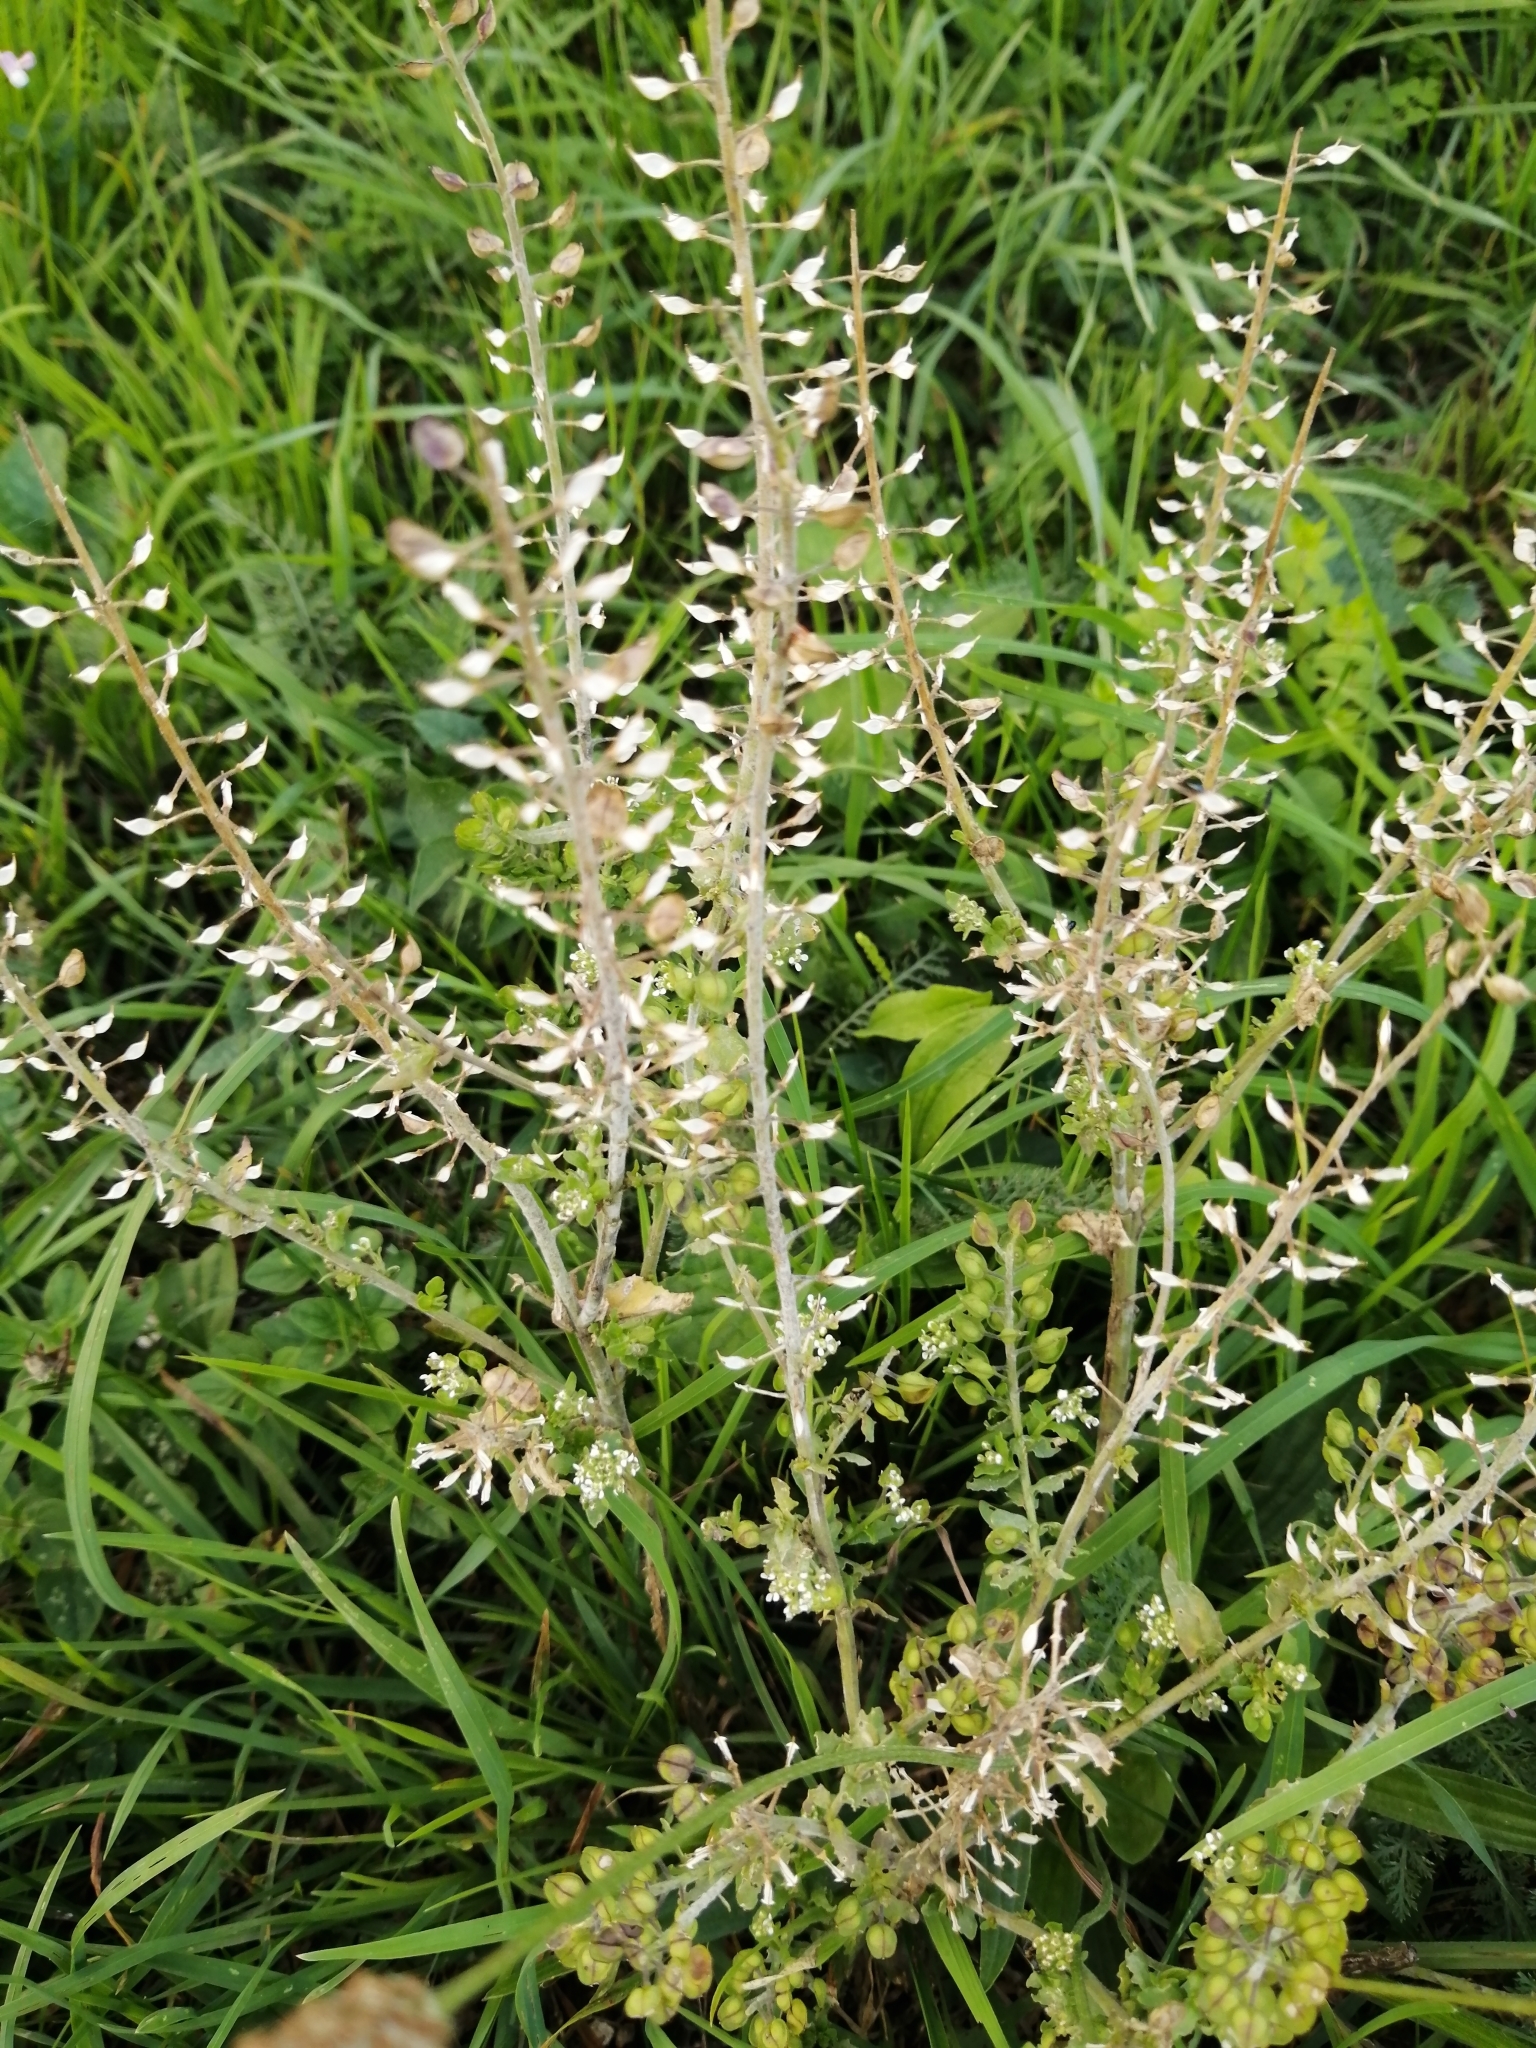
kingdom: Plantae
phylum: Tracheophyta
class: Magnoliopsida
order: Brassicales
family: Brassicaceae
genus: Lepidium
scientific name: Lepidium campestre
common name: Field pepperwort
